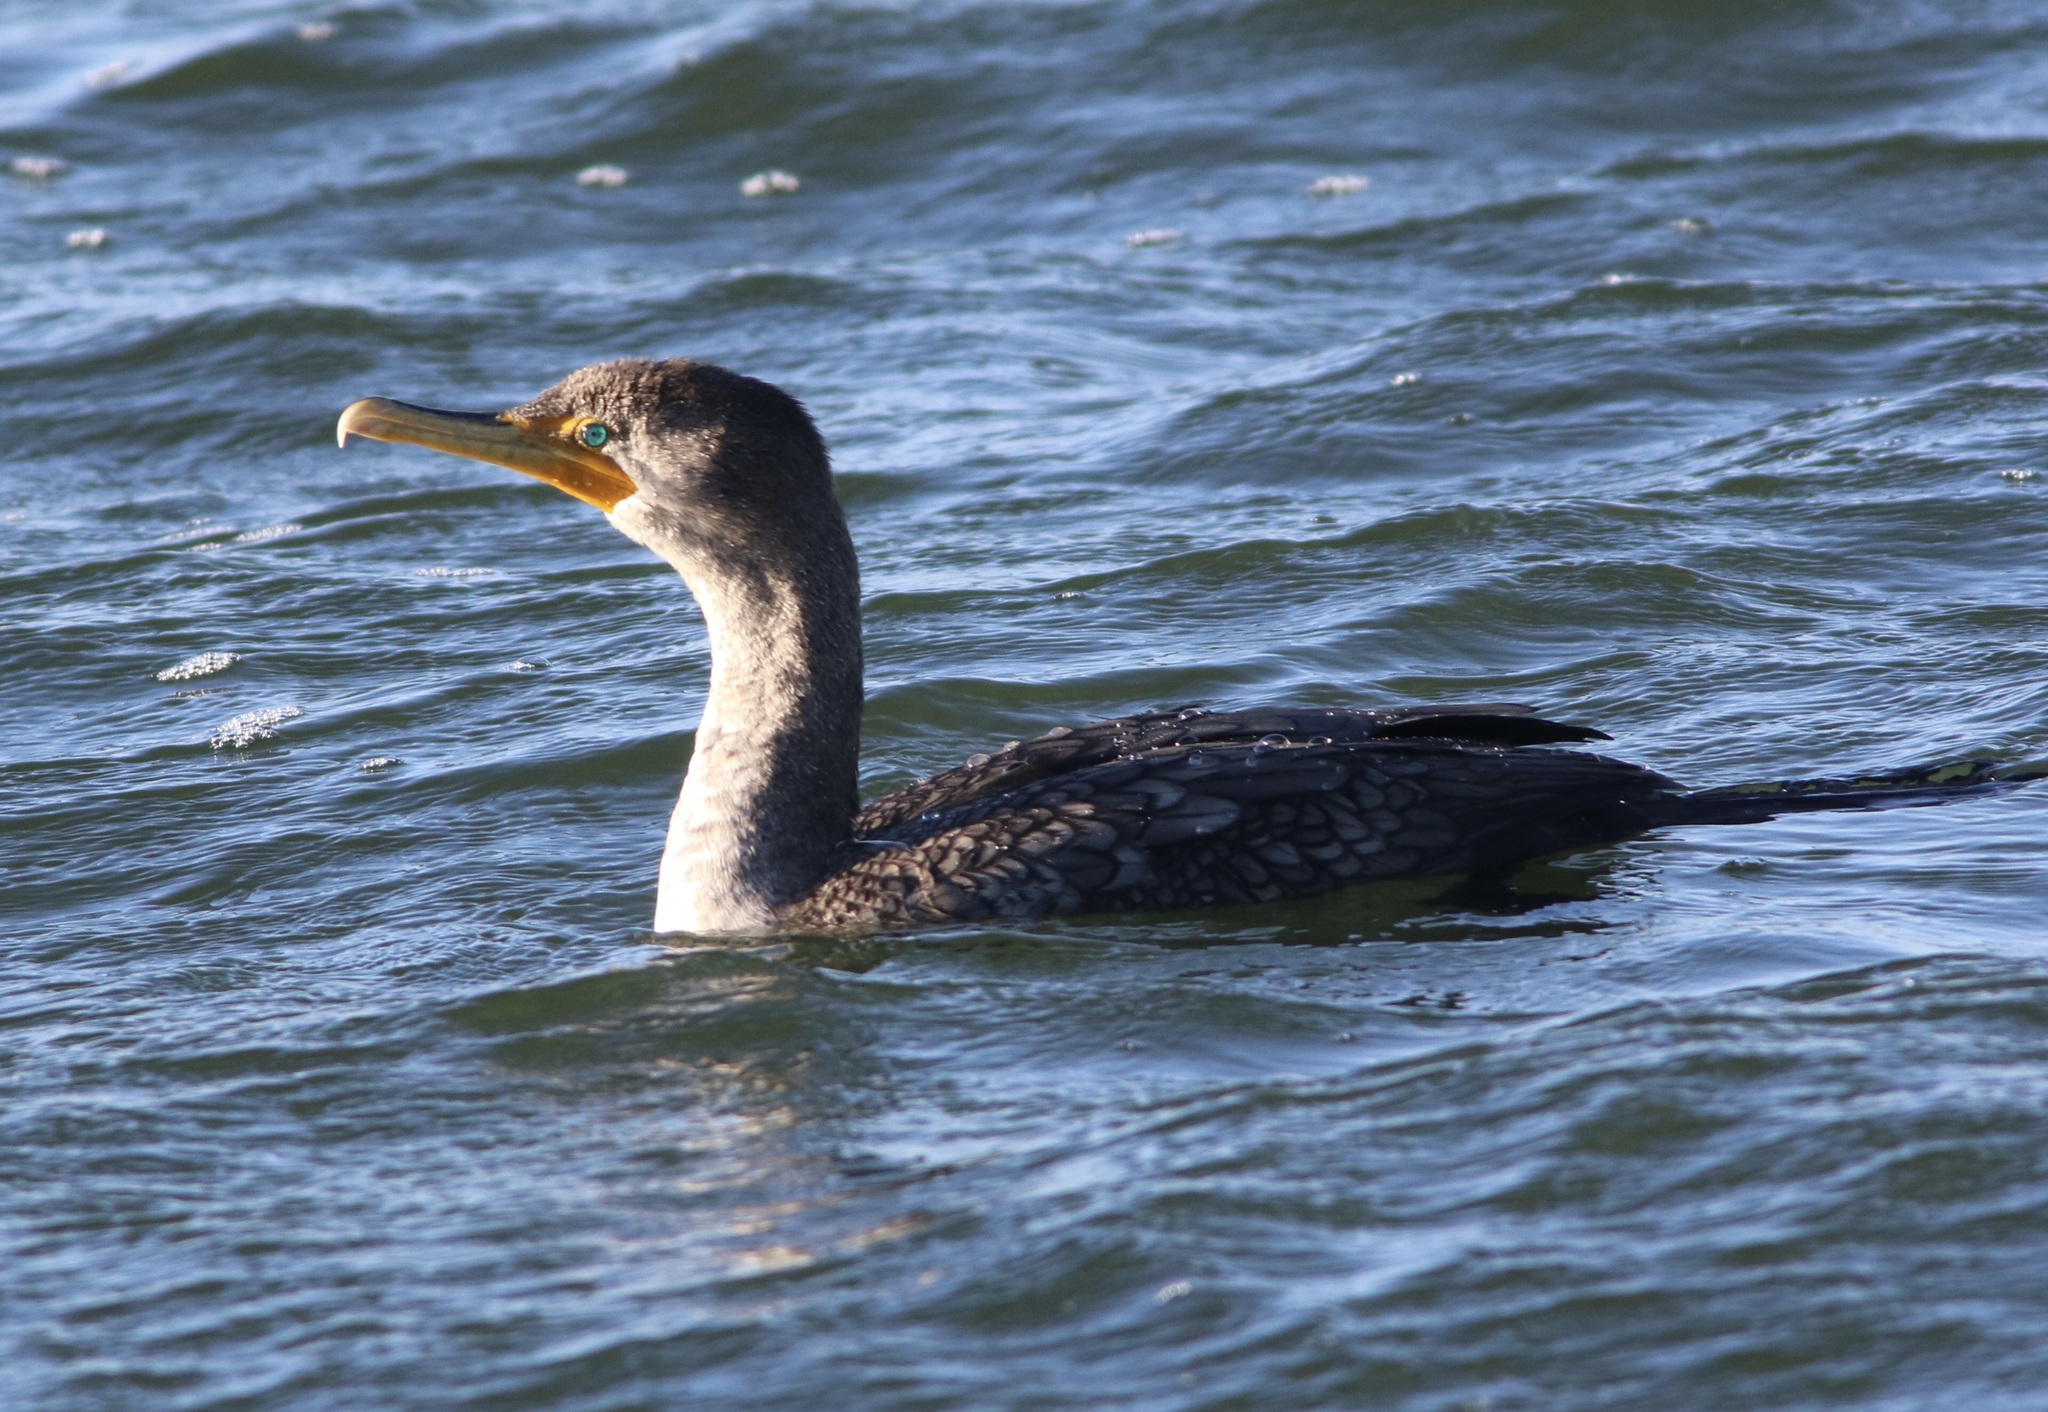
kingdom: Animalia
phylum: Chordata
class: Aves
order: Suliformes
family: Phalacrocoracidae
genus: Phalacrocorax
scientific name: Phalacrocorax auritus
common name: Double-crested cormorant
